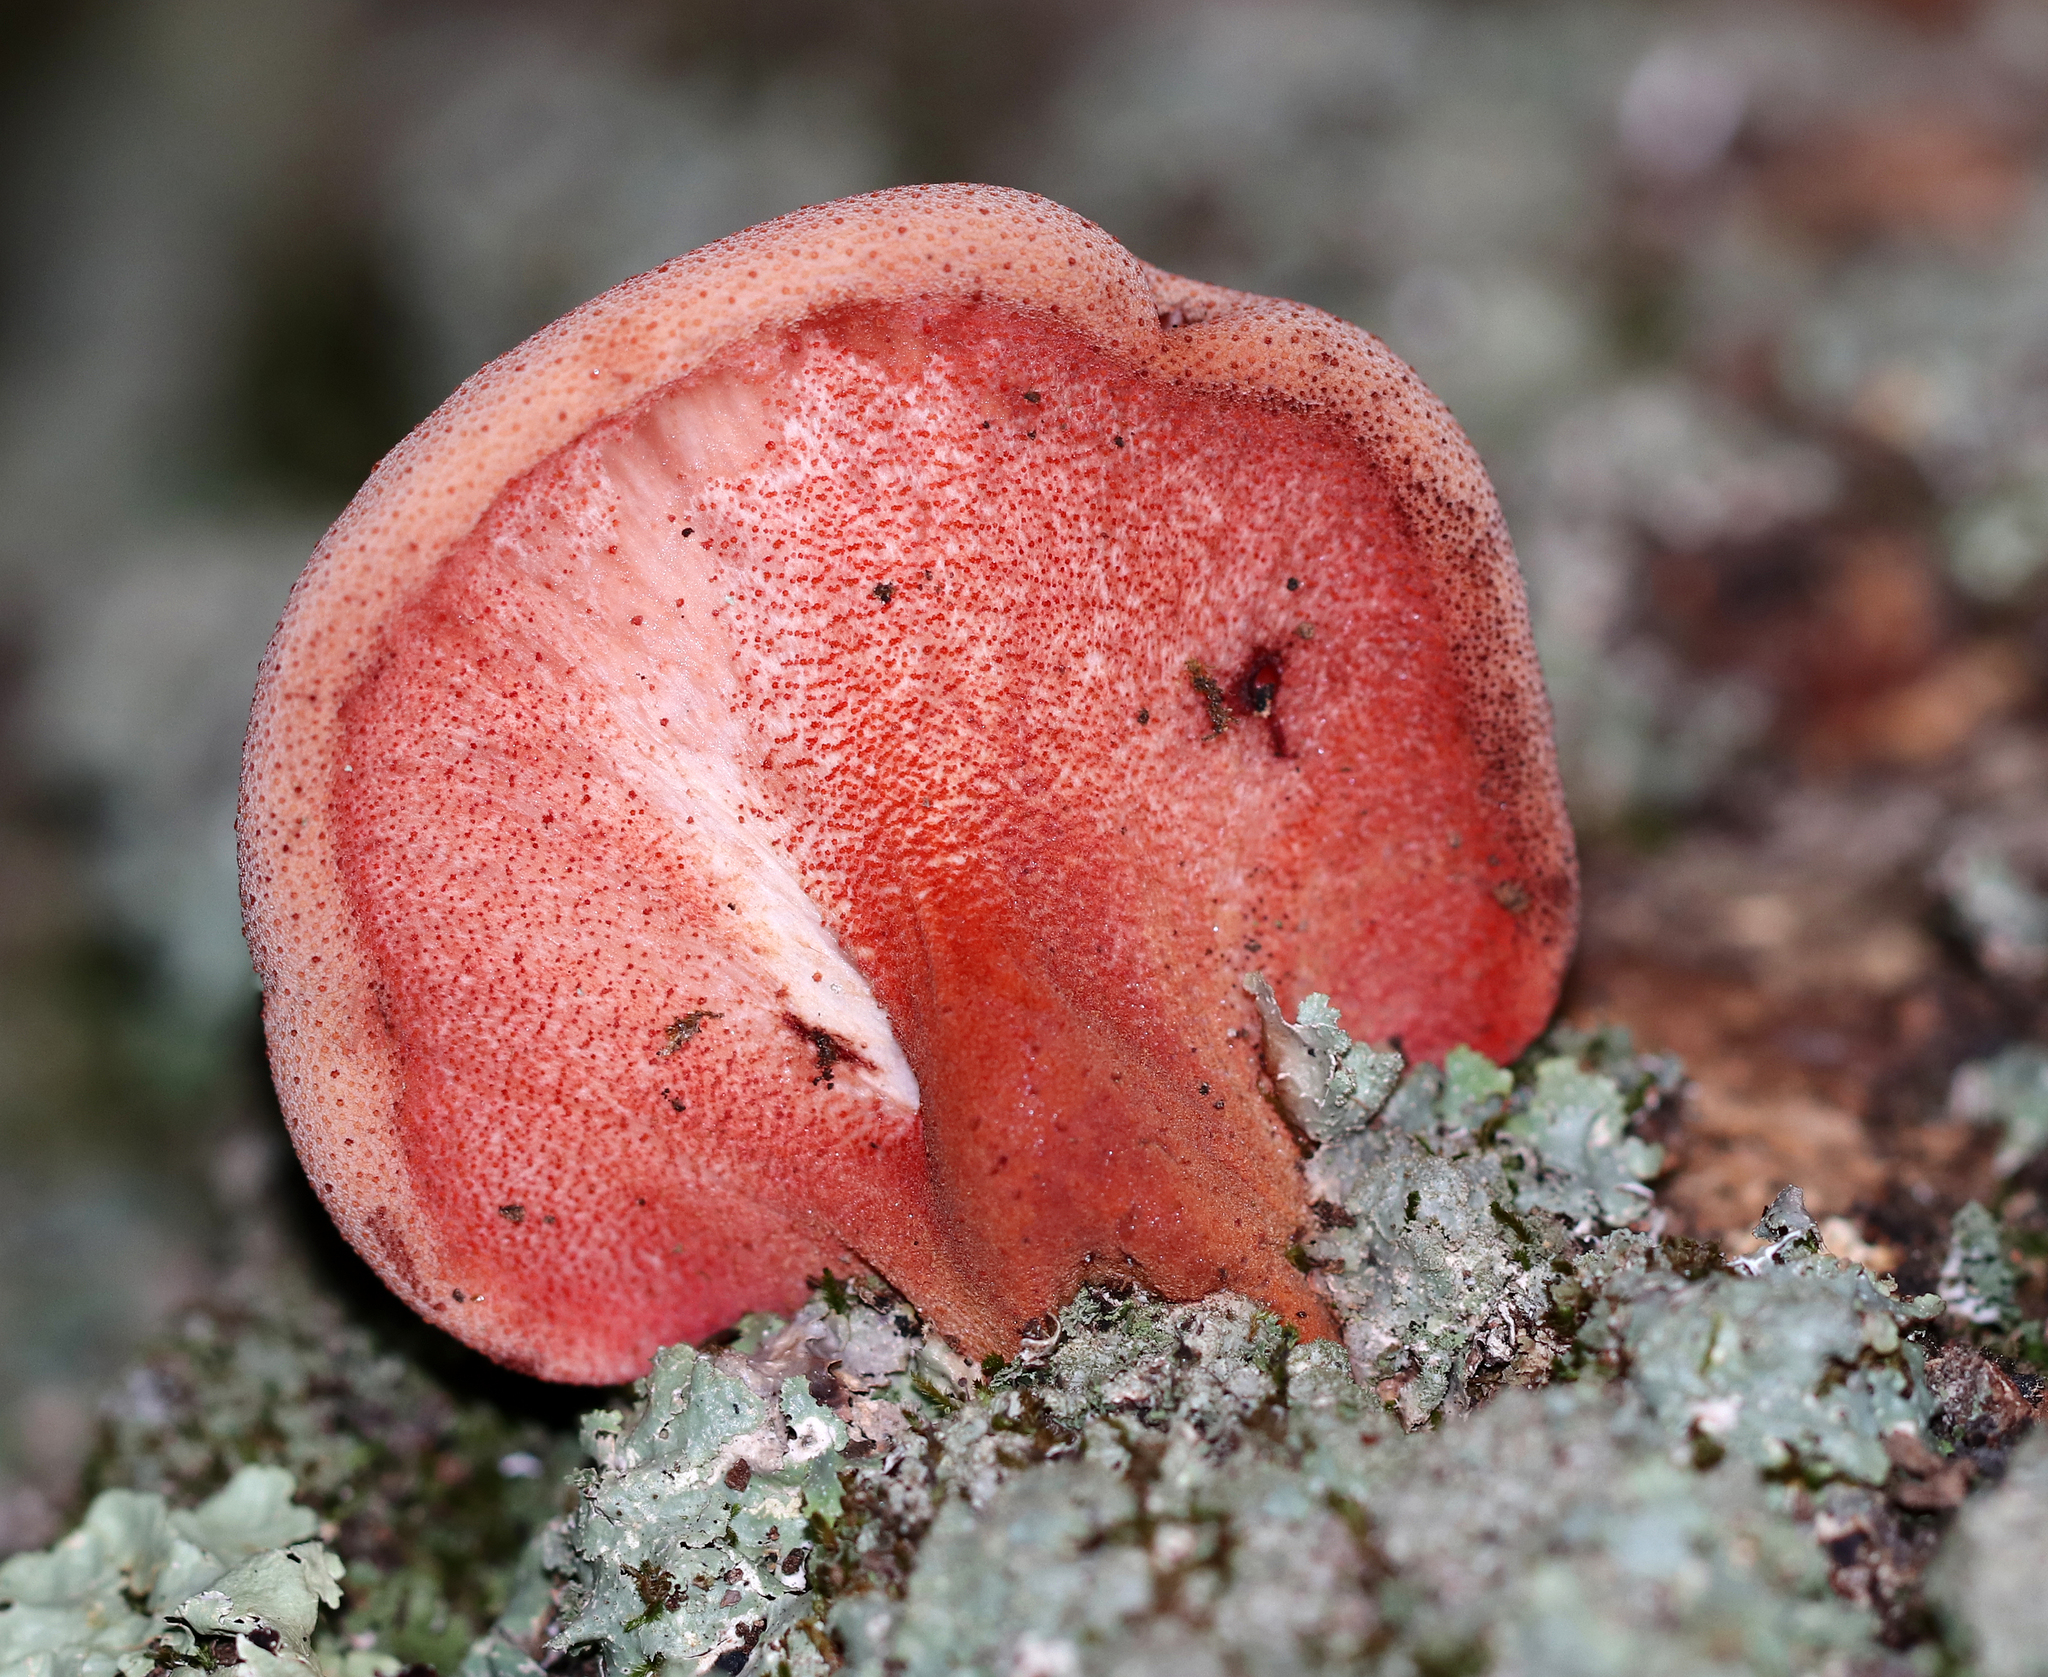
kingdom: Fungi
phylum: Basidiomycota
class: Agaricomycetes
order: Agaricales
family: Fistulinaceae
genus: Fistulina
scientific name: Fistulina hepatica
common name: Beef-steak fungus
